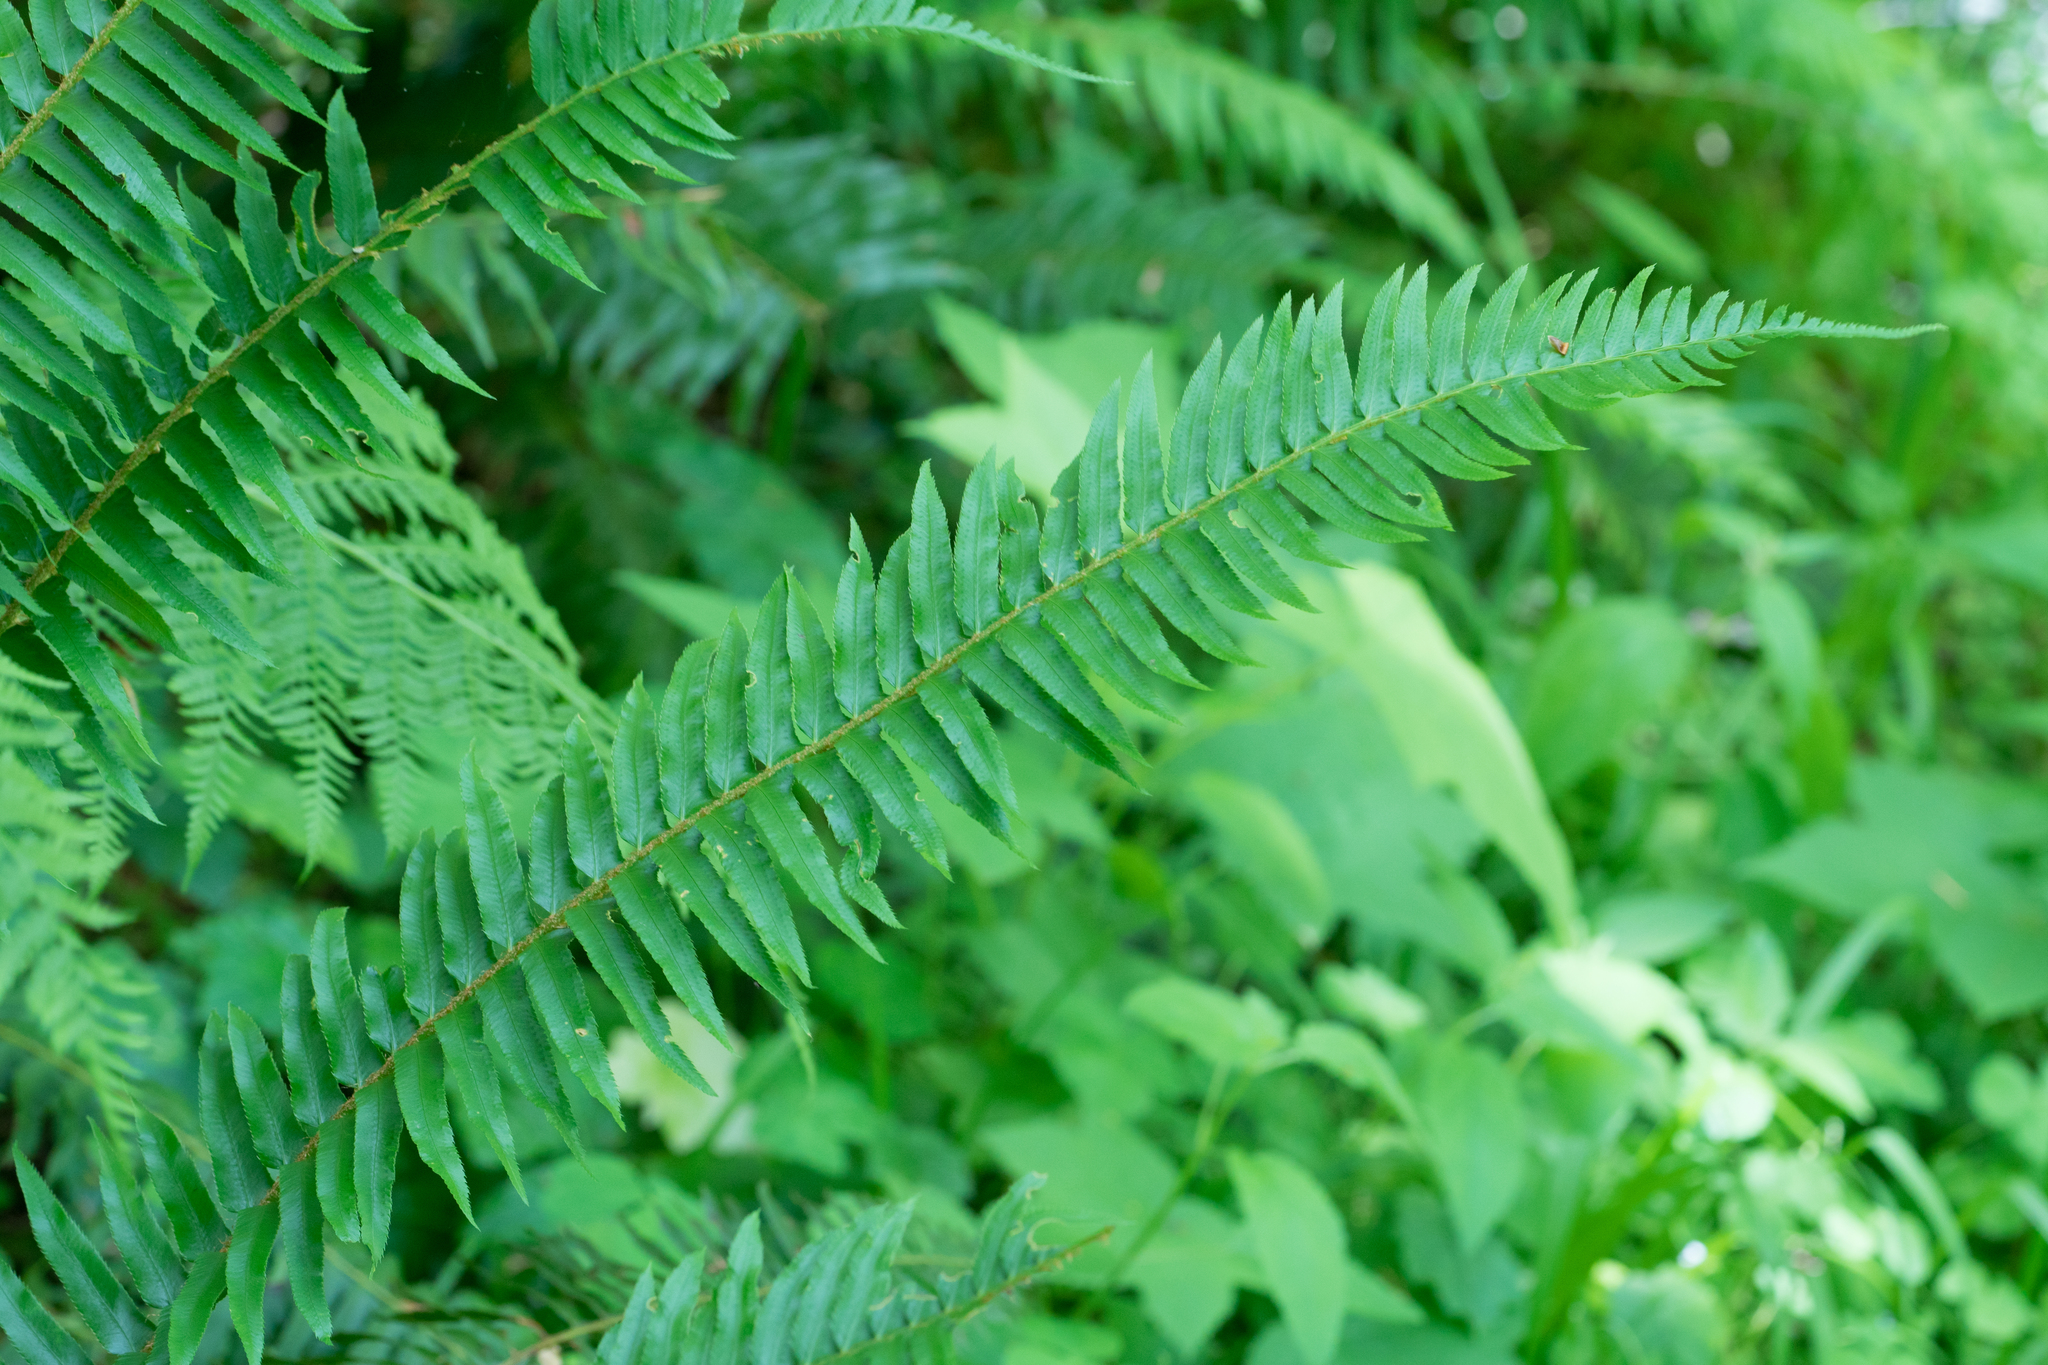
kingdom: Plantae
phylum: Tracheophyta
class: Polypodiopsida
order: Polypodiales
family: Dryopteridaceae
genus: Polystichum
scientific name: Polystichum munitum
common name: Western sword-fern
